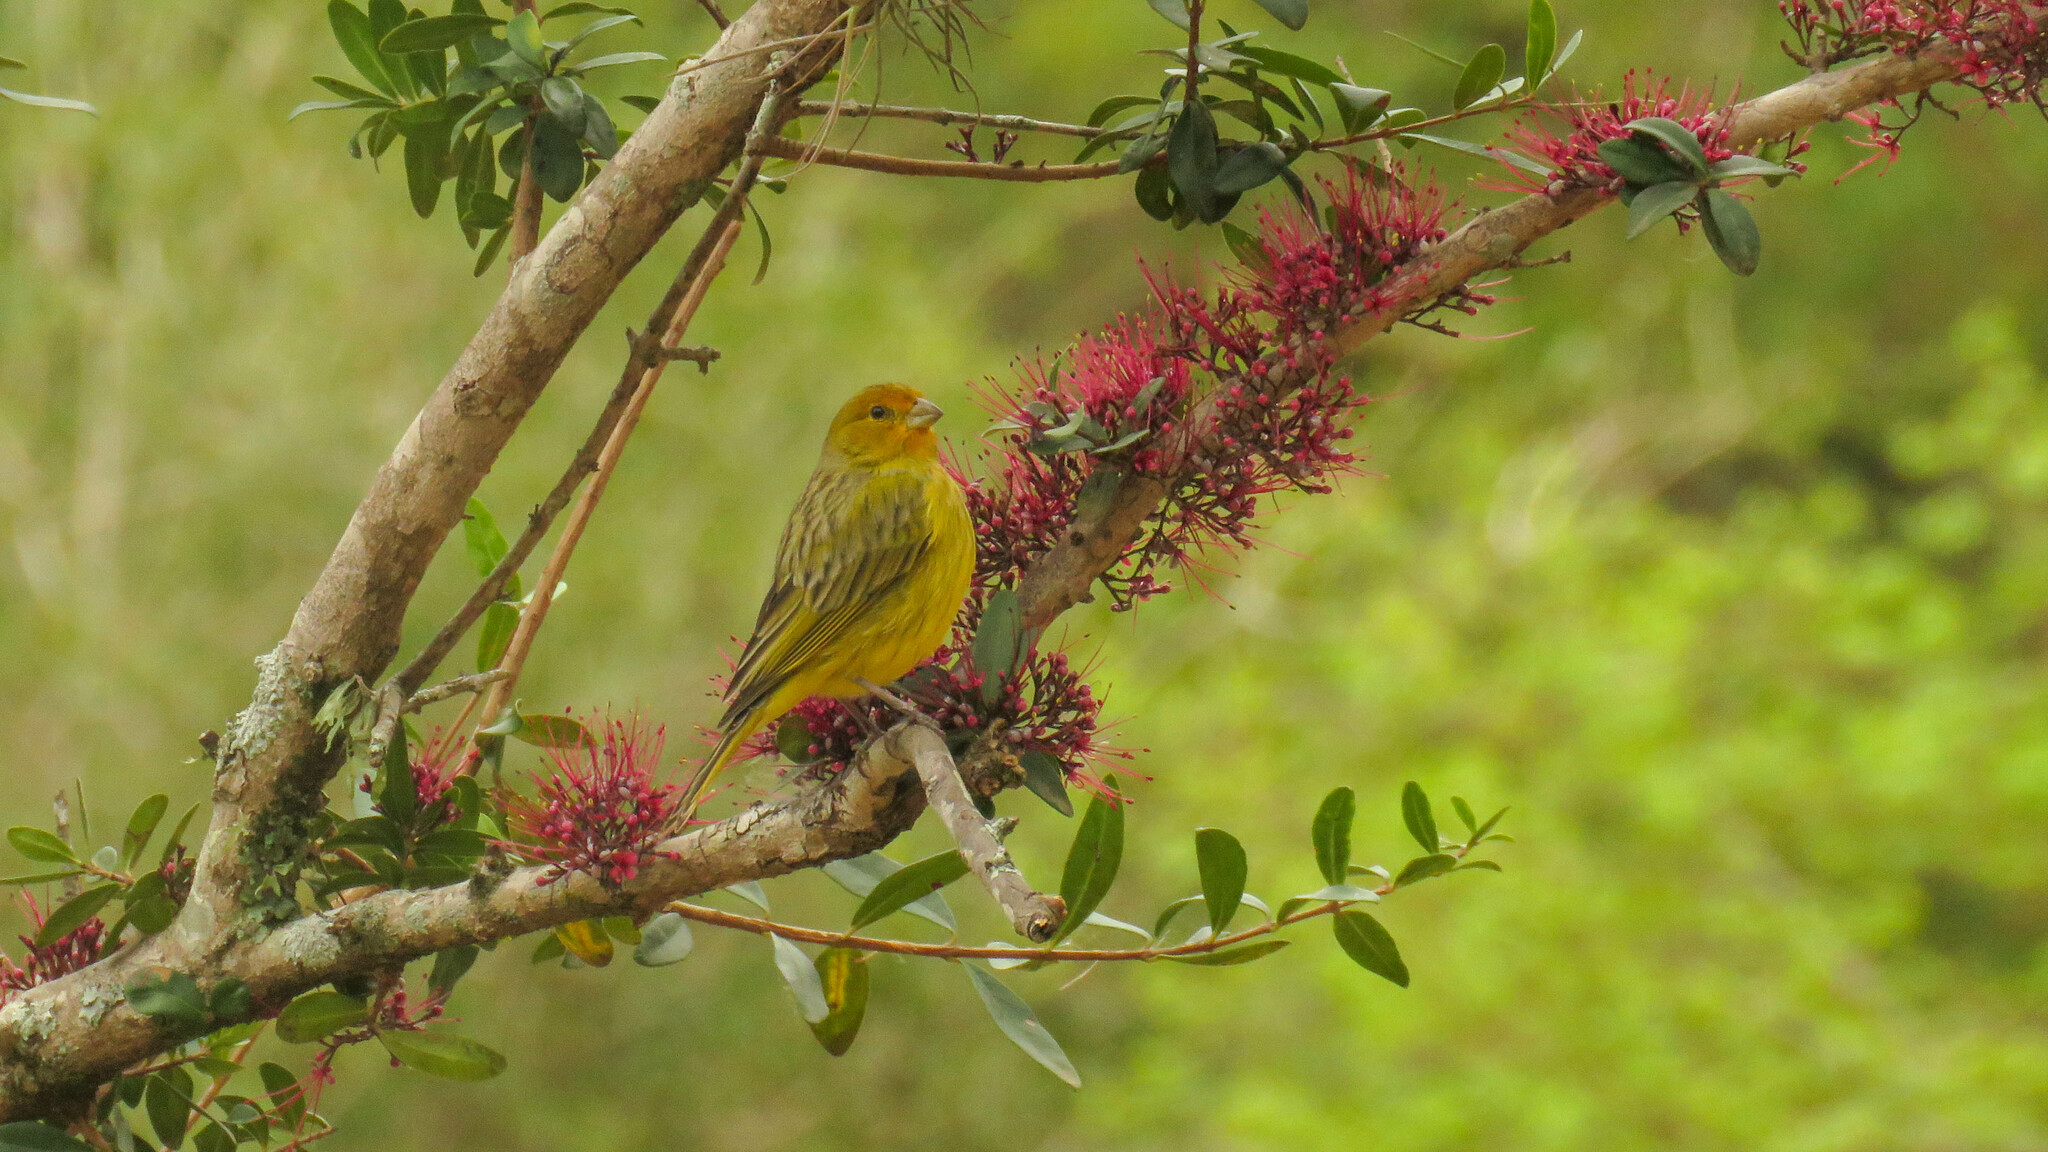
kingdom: Animalia
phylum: Chordata
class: Aves
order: Passeriformes
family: Thraupidae
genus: Sicalis
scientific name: Sicalis flaveola
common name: Saffron finch
